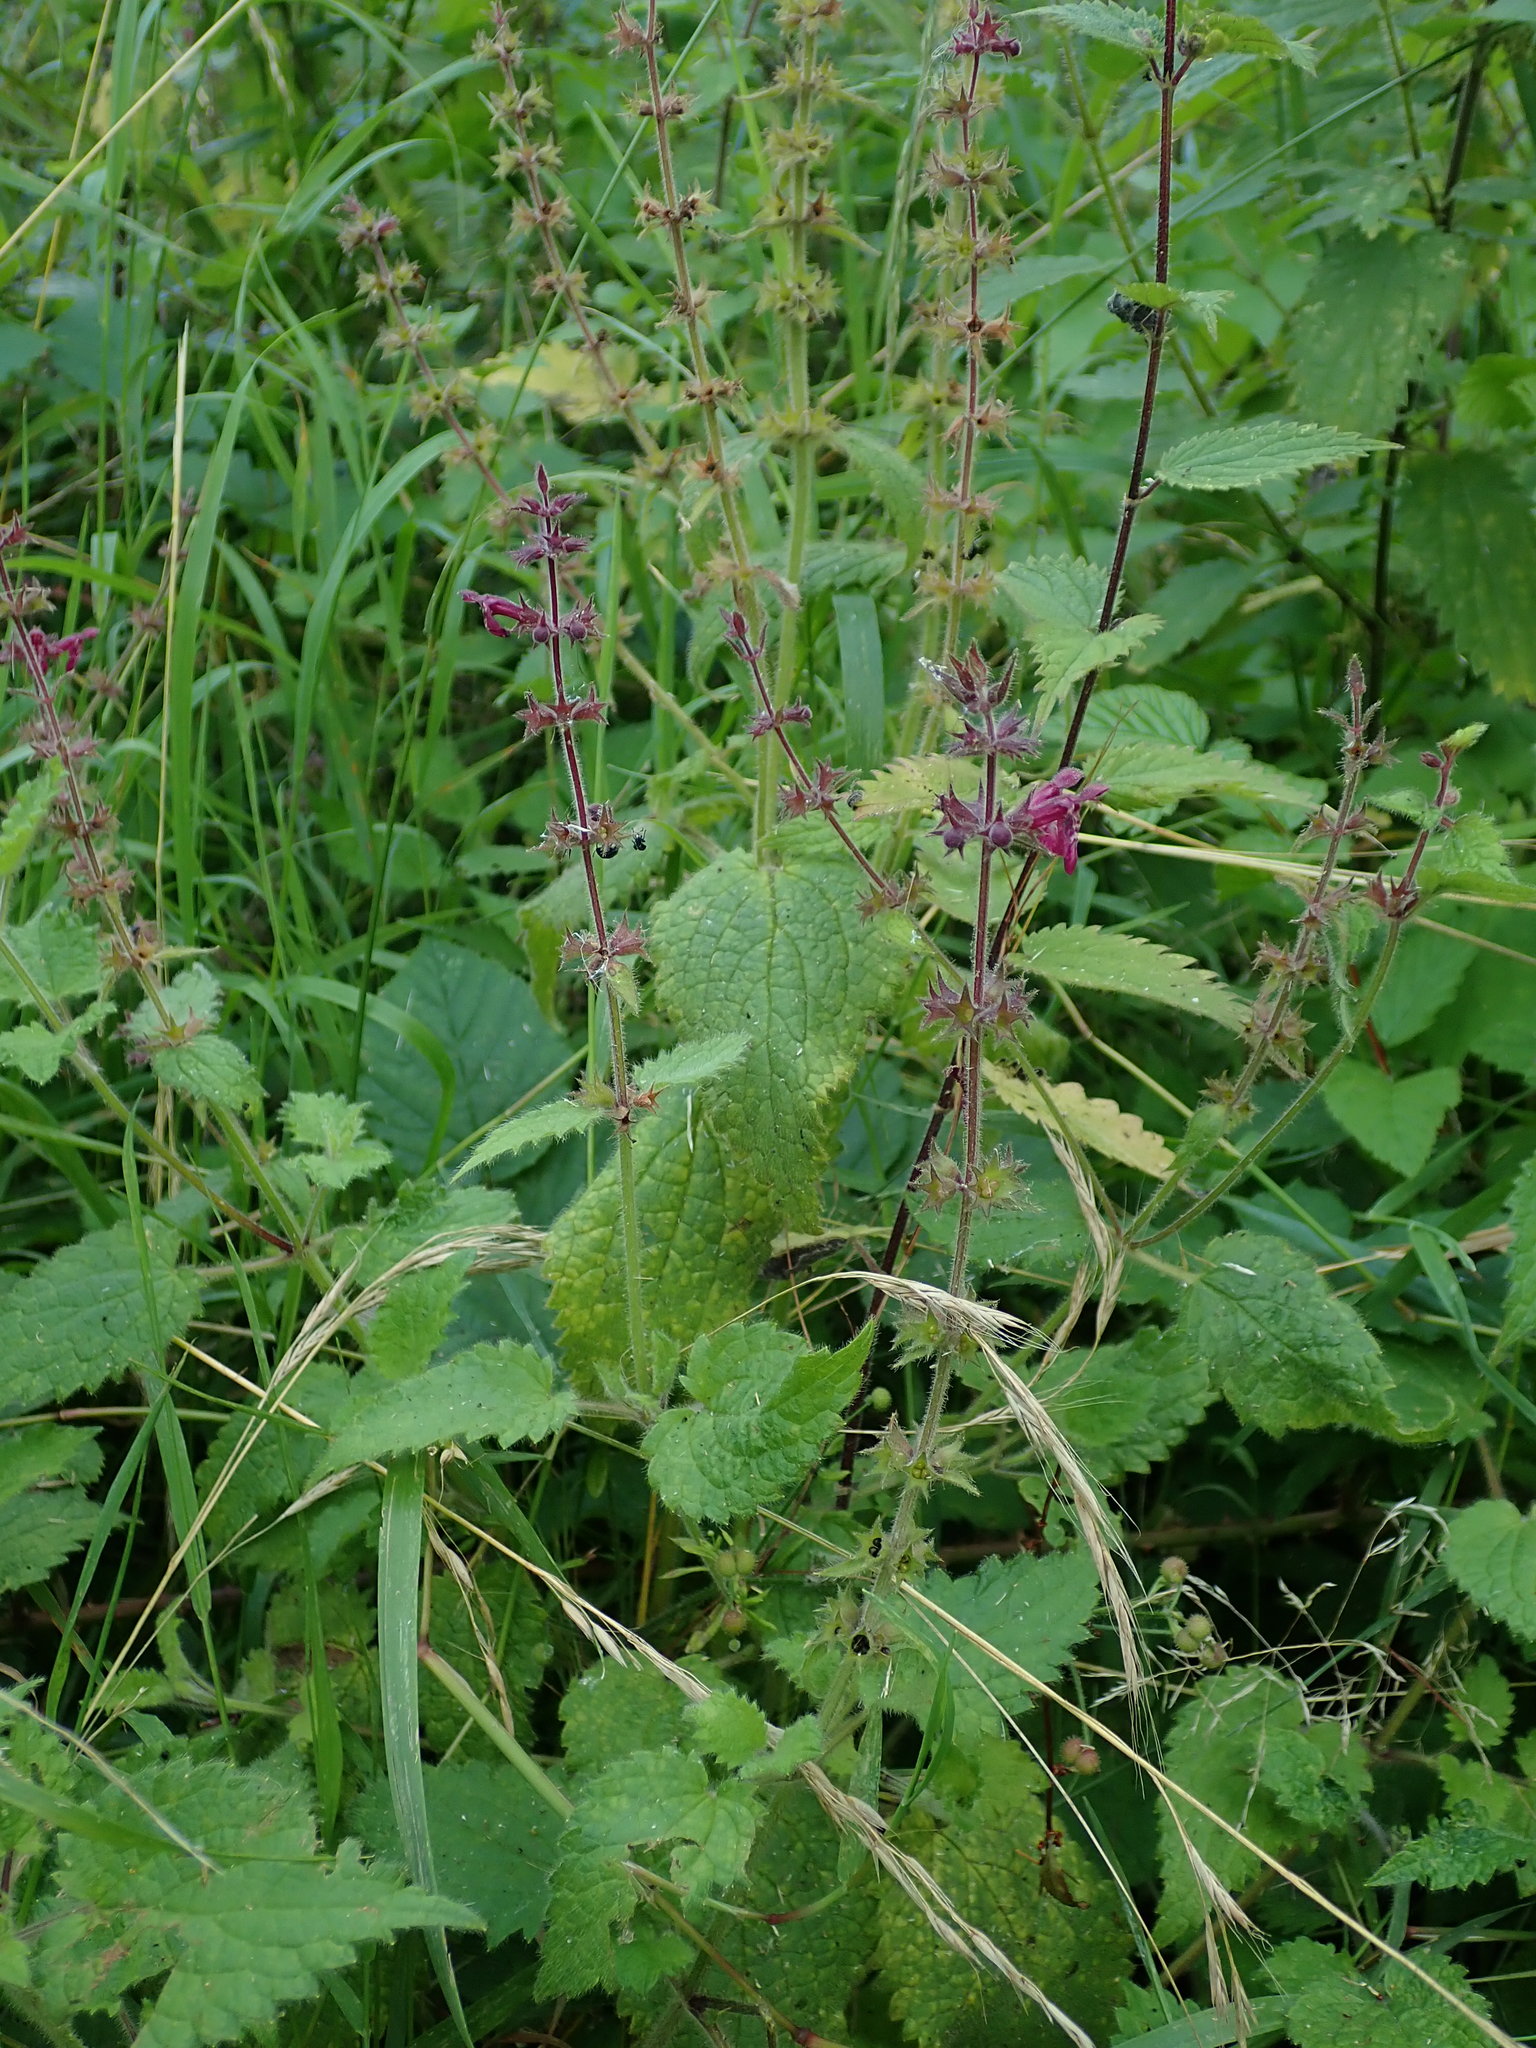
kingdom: Plantae
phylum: Tracheophyta
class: Magnoliopsida
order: Lamiales
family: Lamiaceae
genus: Stachys
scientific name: Stachys sylvatica
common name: Hedge woundwort
